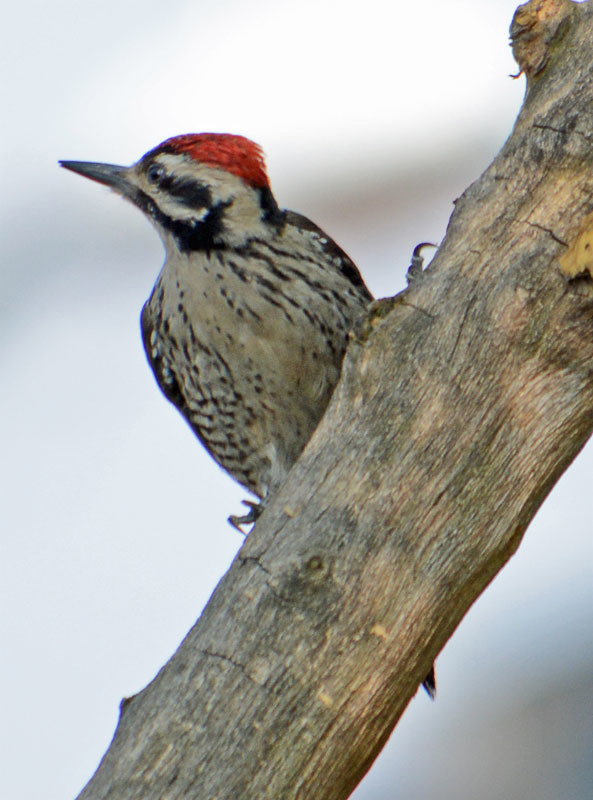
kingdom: Animalia
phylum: Chordata
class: Aves
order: Piciformes
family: Picidae
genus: Dryobates
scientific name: Dryobates scalaris
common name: Ladder-backed woodpecker
